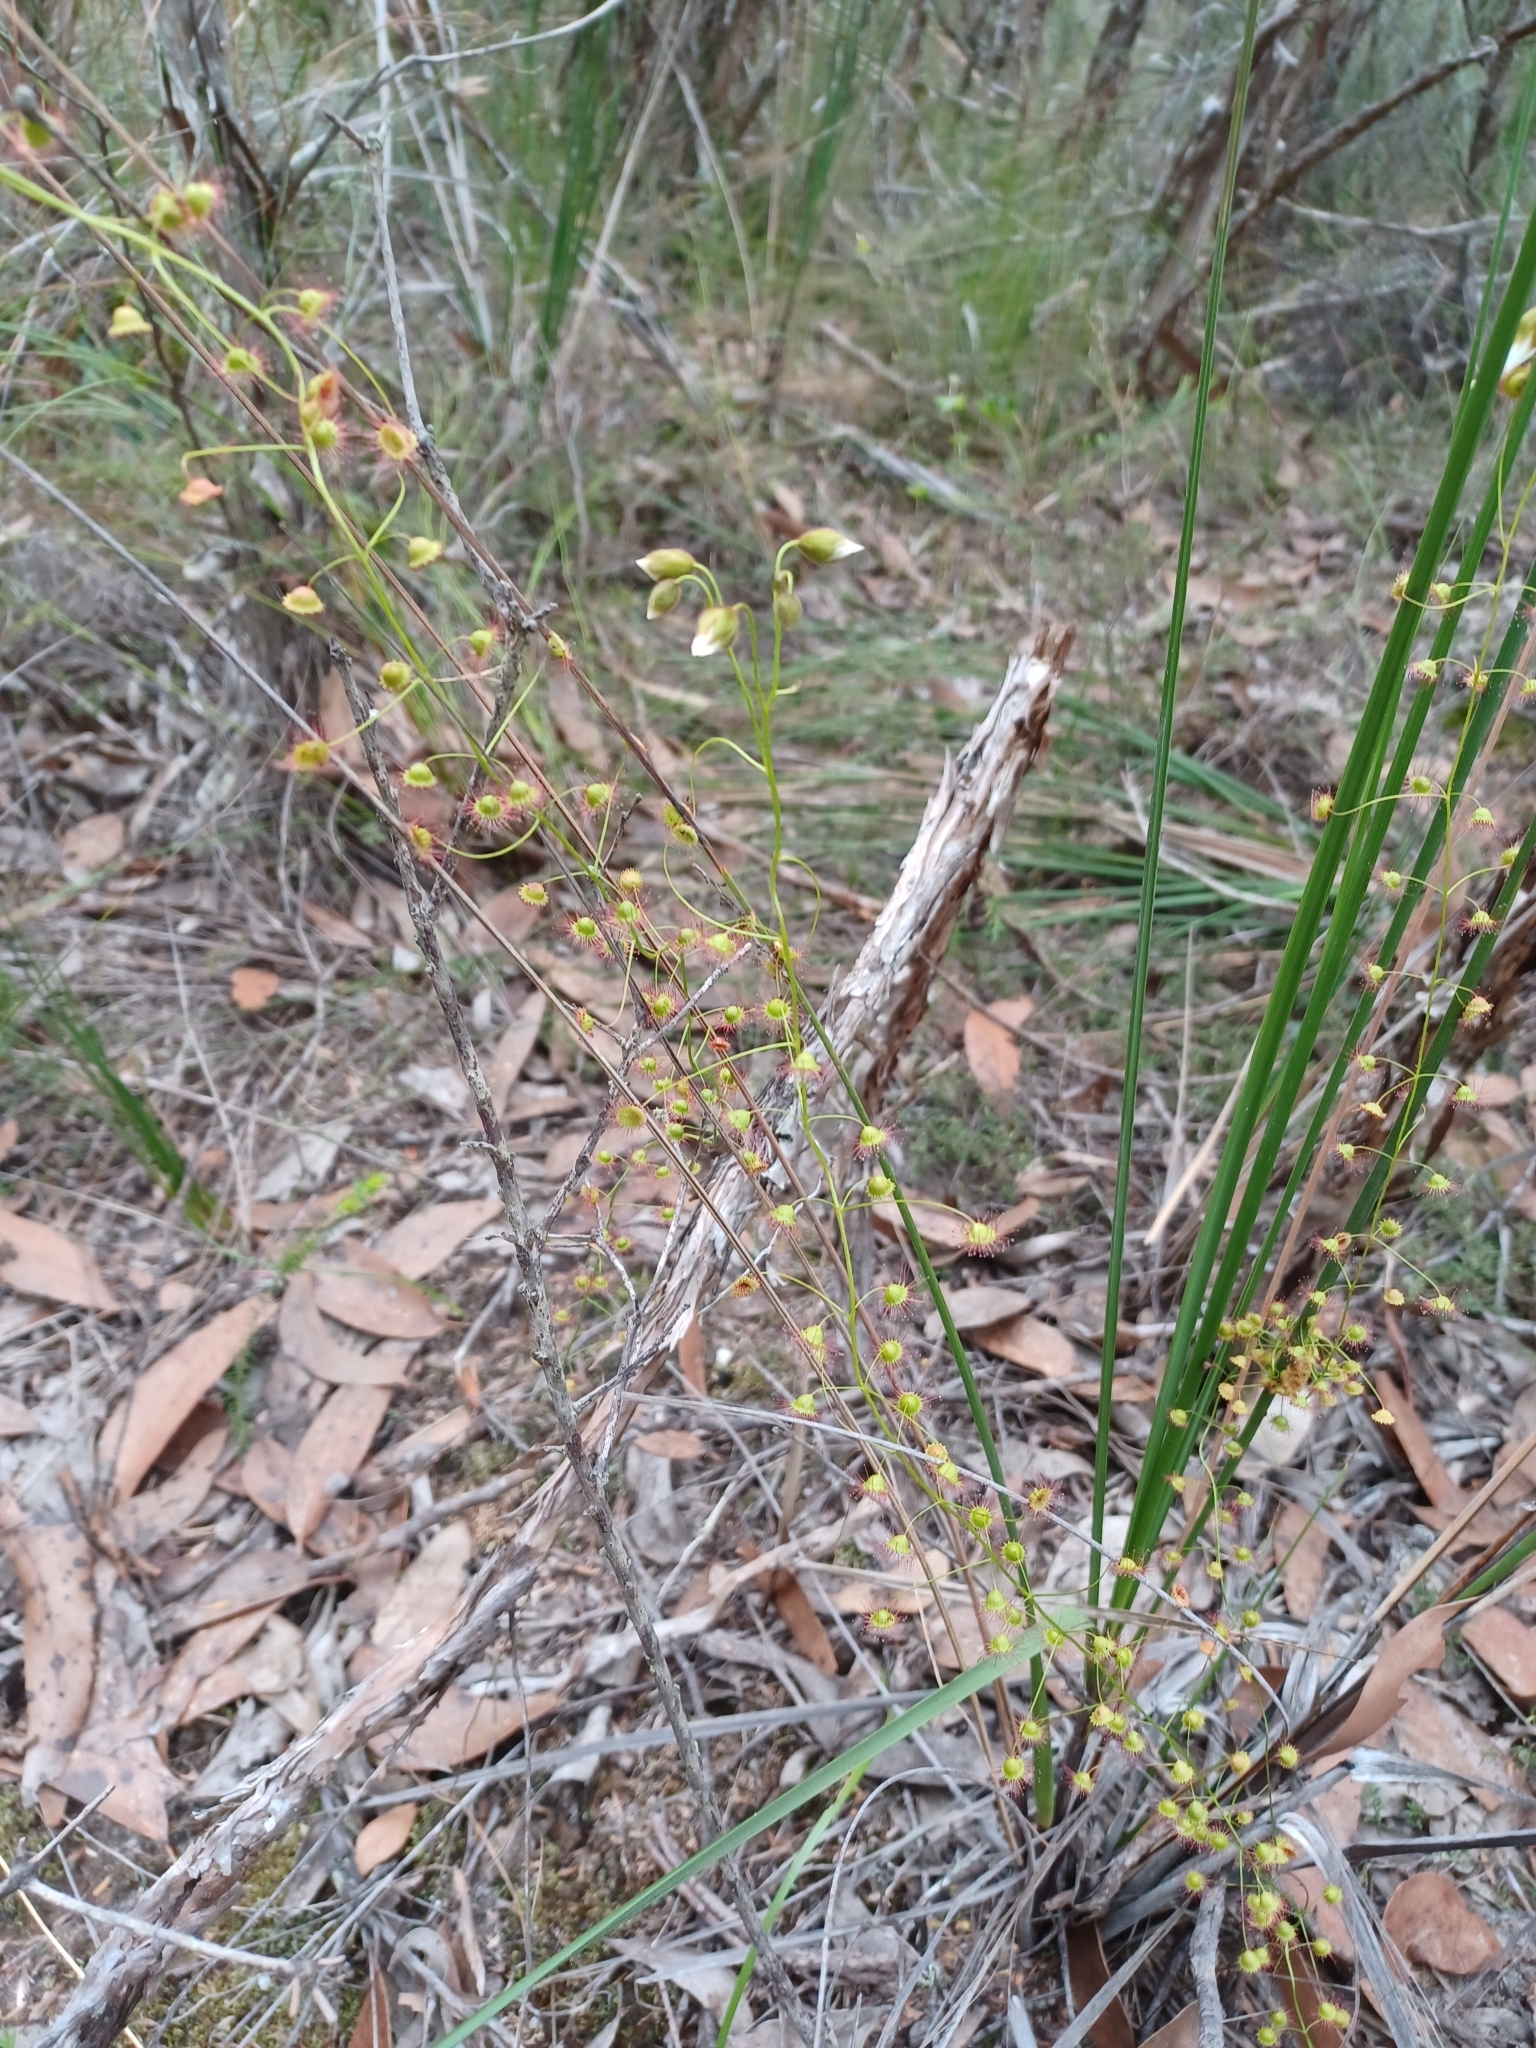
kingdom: Plantae
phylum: Tracheophyta
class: Magnoliopsida
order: Caryophyllales
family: Droseraceae
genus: Drosera
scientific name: Drosera planchonii
